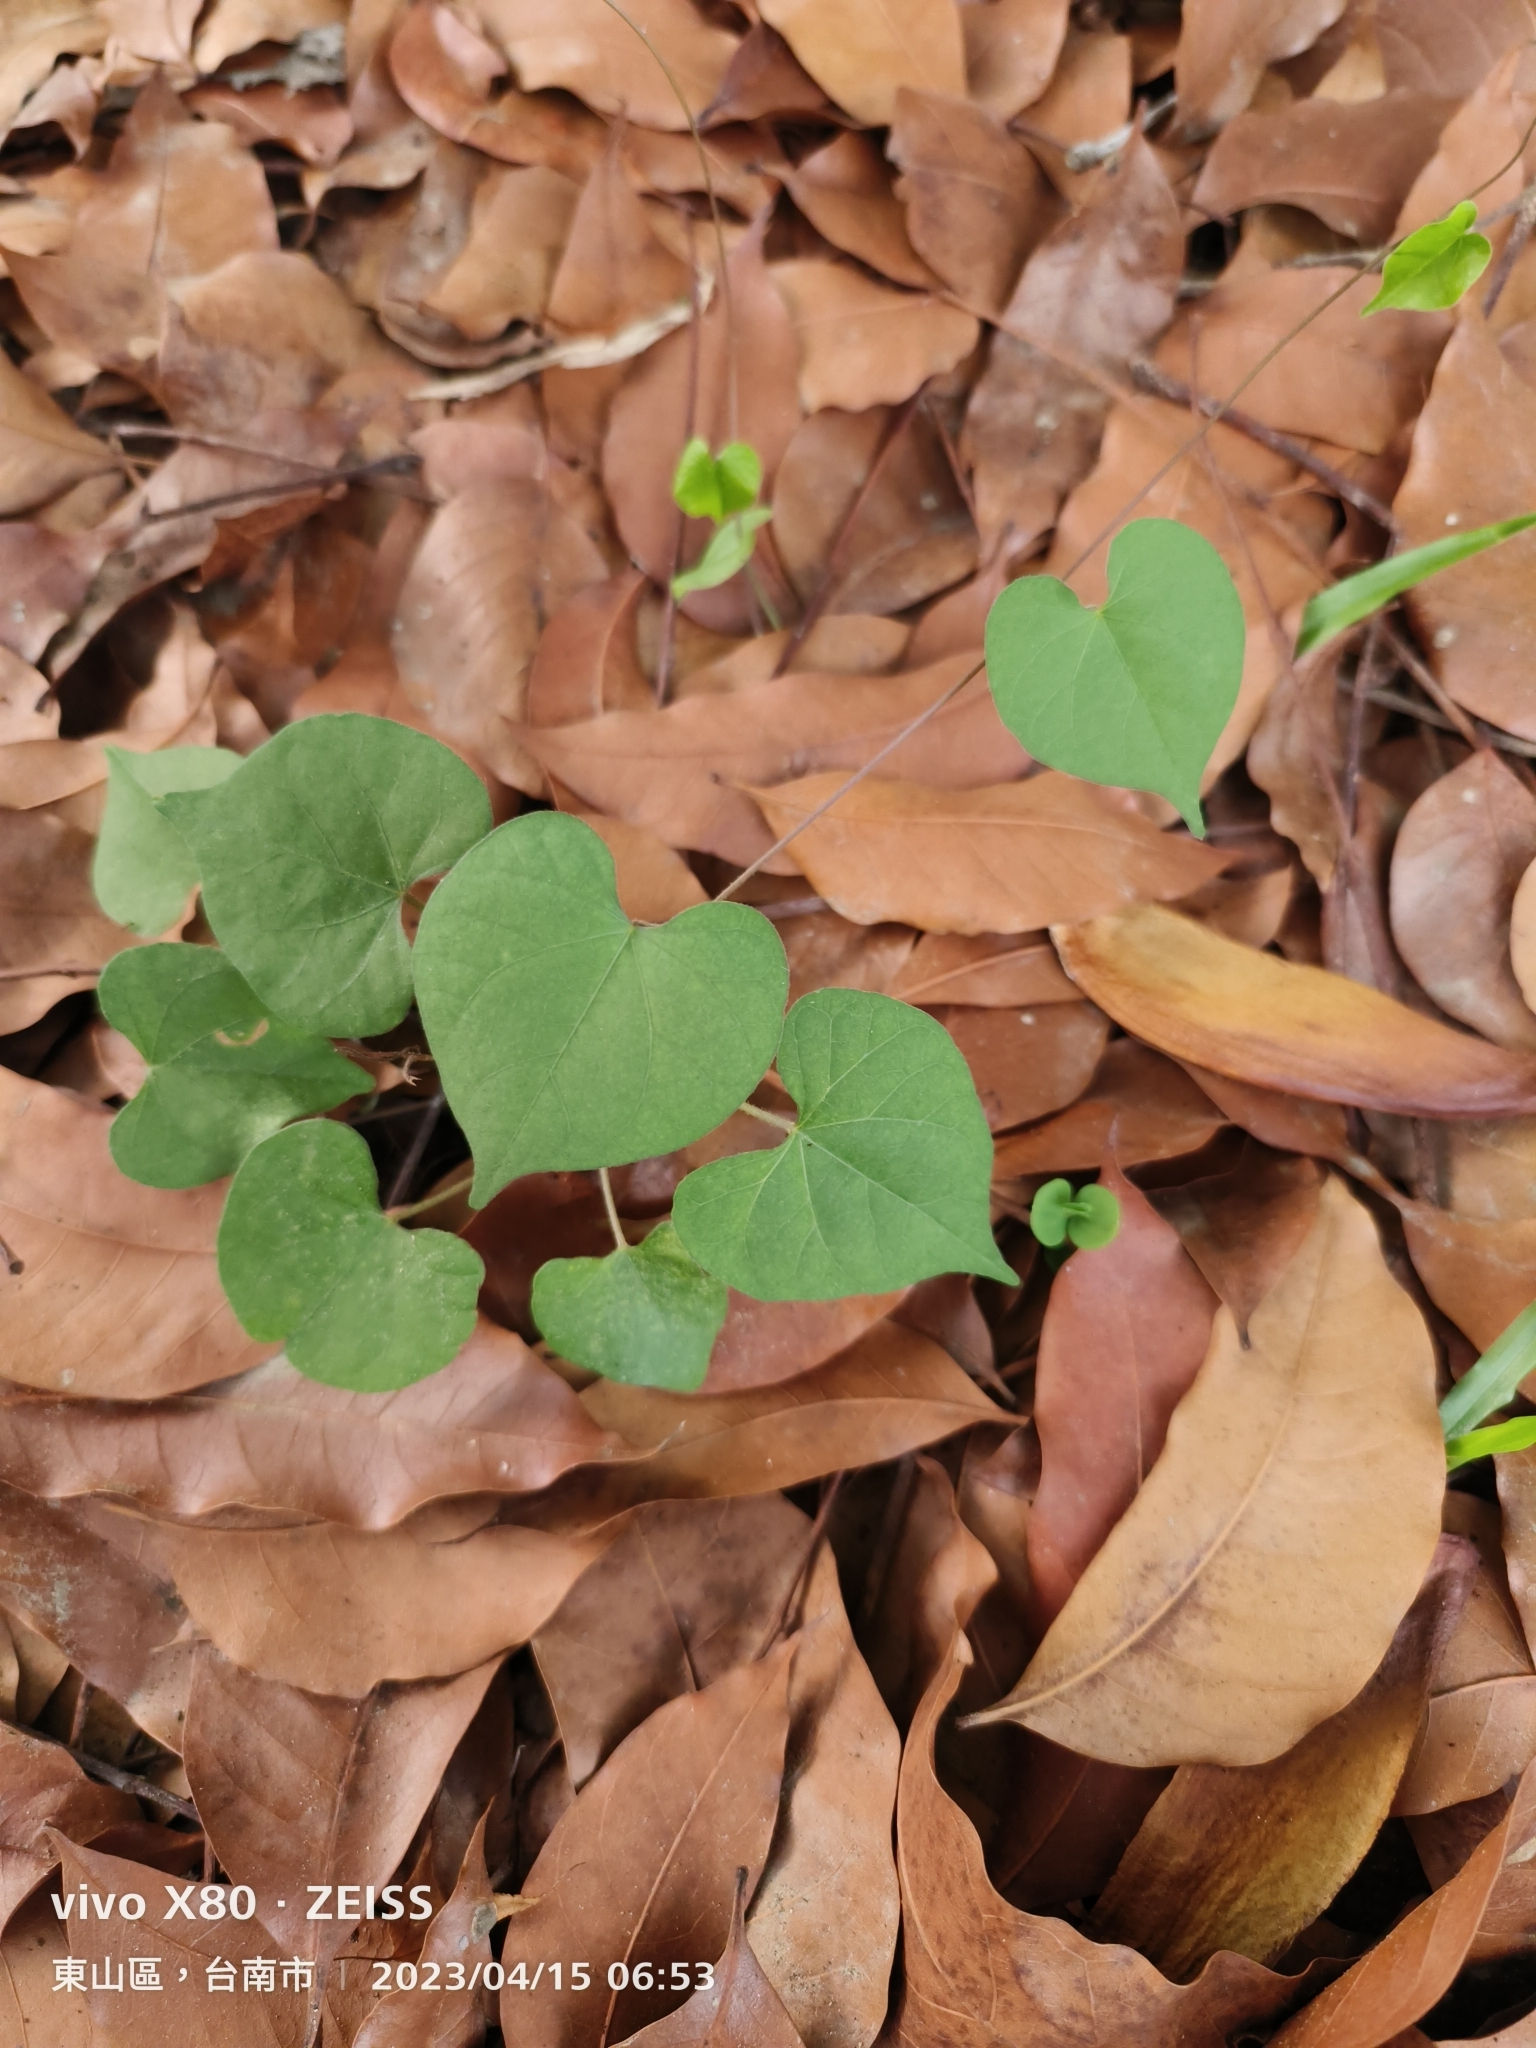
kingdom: Plantae
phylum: Tracheophyta
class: Magnoliopsida
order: Solanales
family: Convolvulaceae
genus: Ipomoea
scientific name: Ipomoea obscura
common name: Obscure morning-glory
